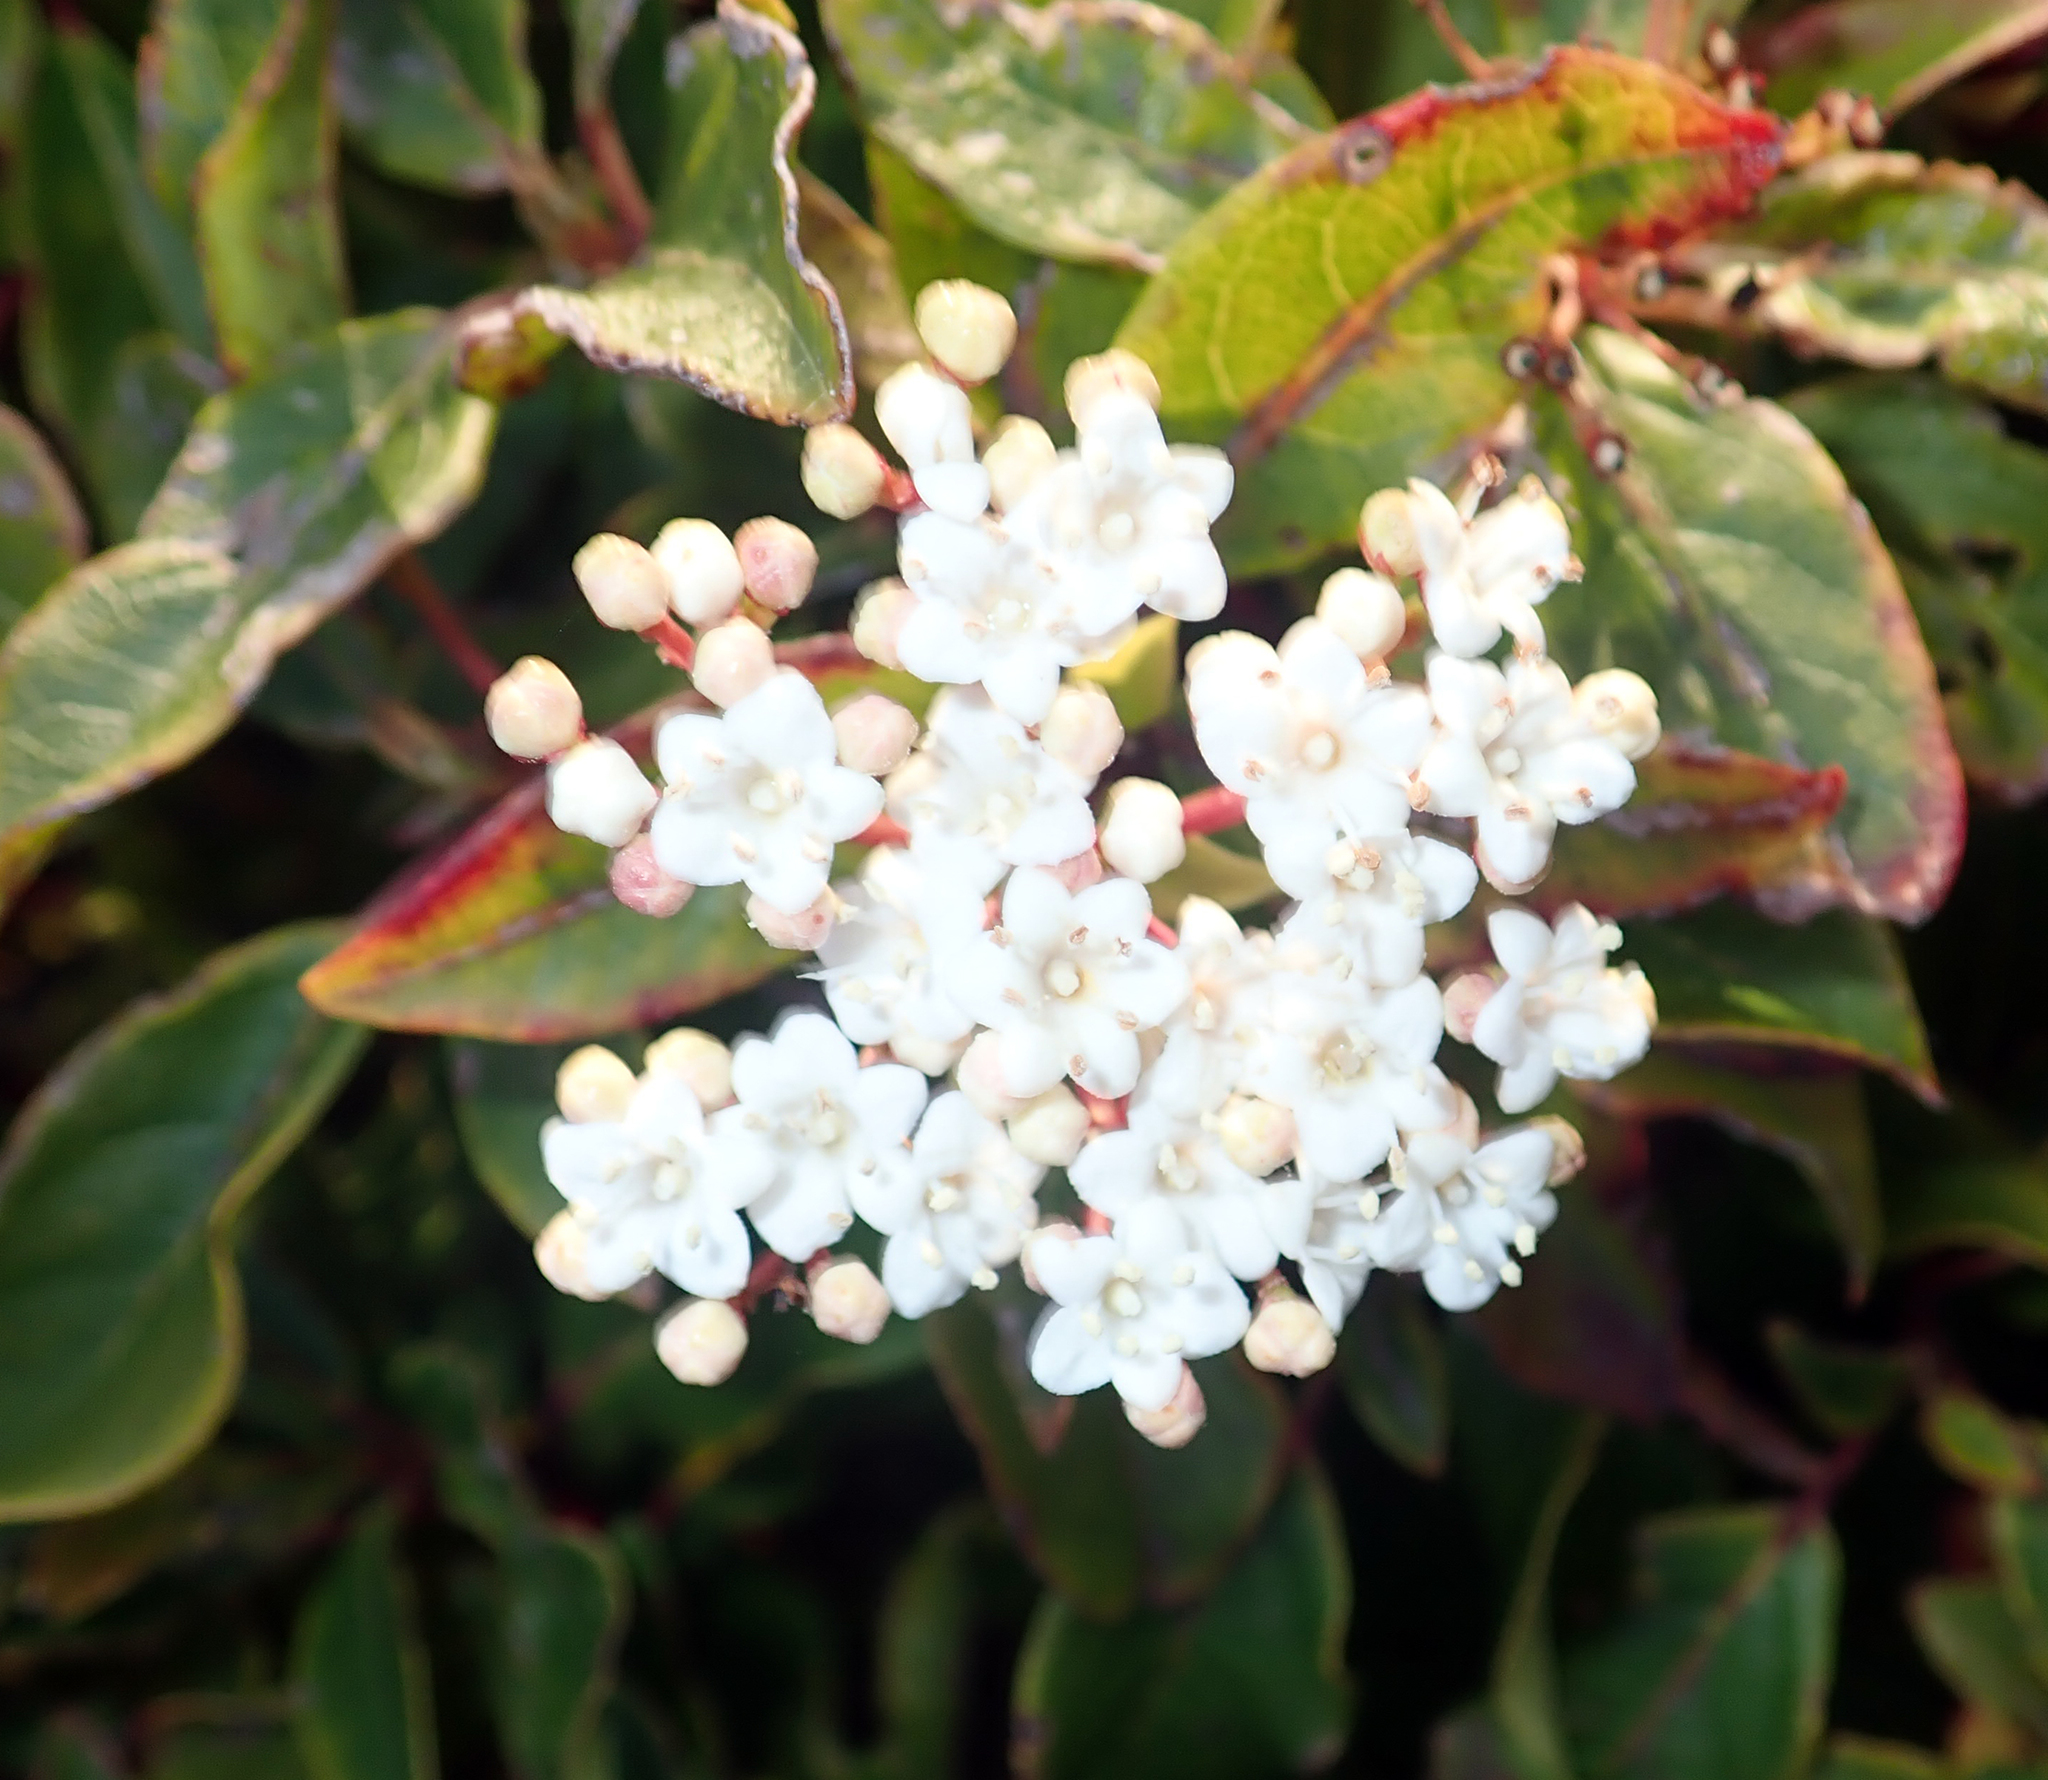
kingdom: Plantae
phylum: Tracheophyta
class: Magnoliopsida
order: Dipsacales
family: Viburnaceae
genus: Viburnum
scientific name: Viburnum tinus
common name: Laurustinus
